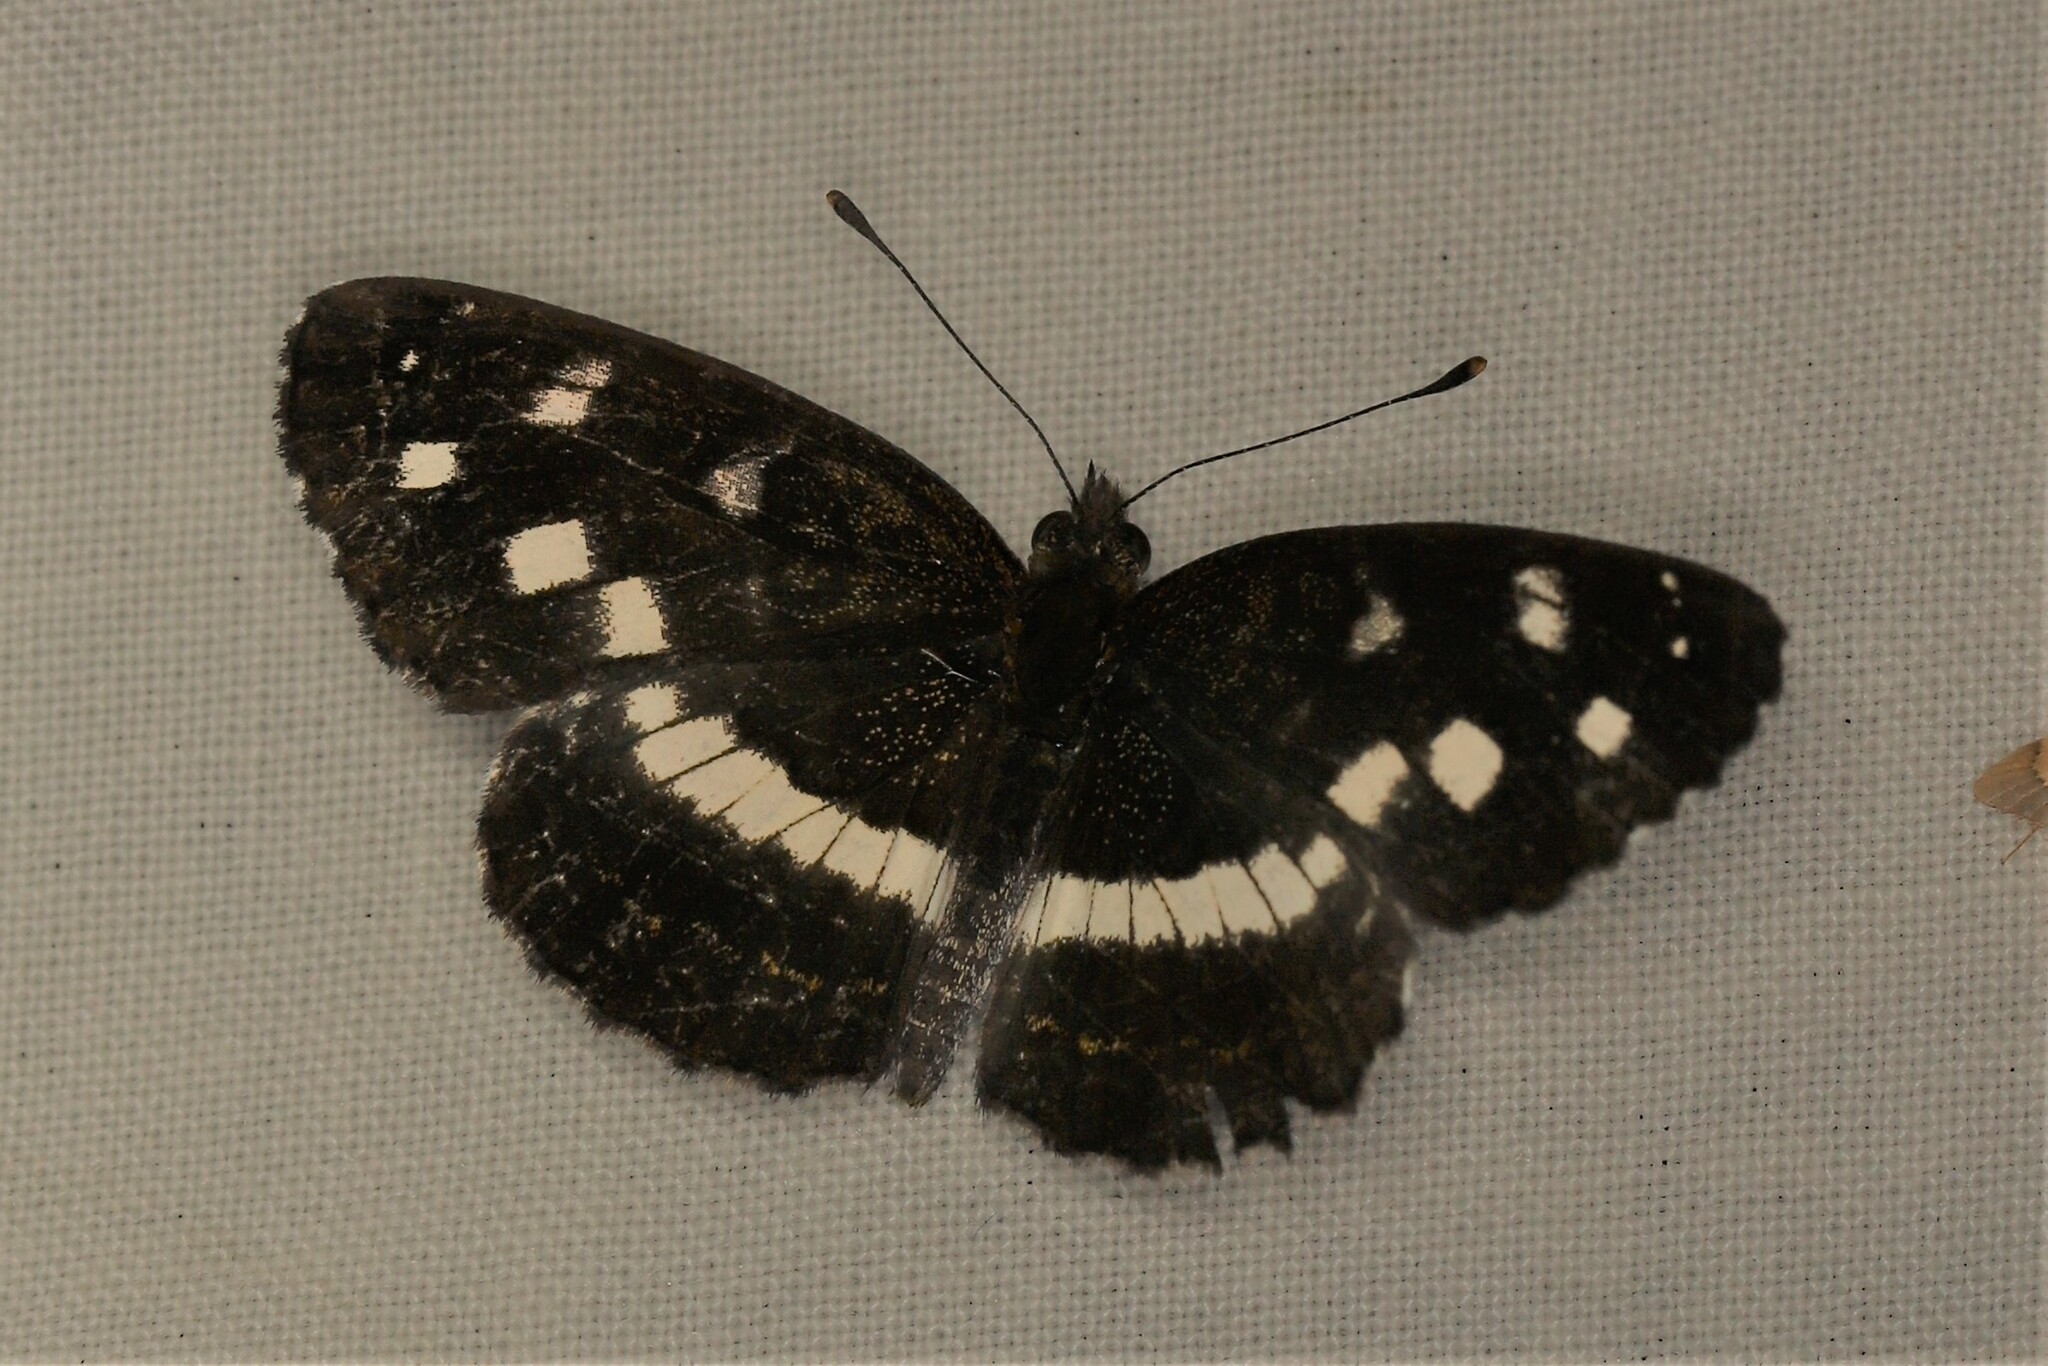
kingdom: Animalia
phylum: Arthropoda
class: Insecta
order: Lepidoptera
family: Nymphalidae
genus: Janatella
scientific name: Janatella fellula
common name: Colombian crescent
